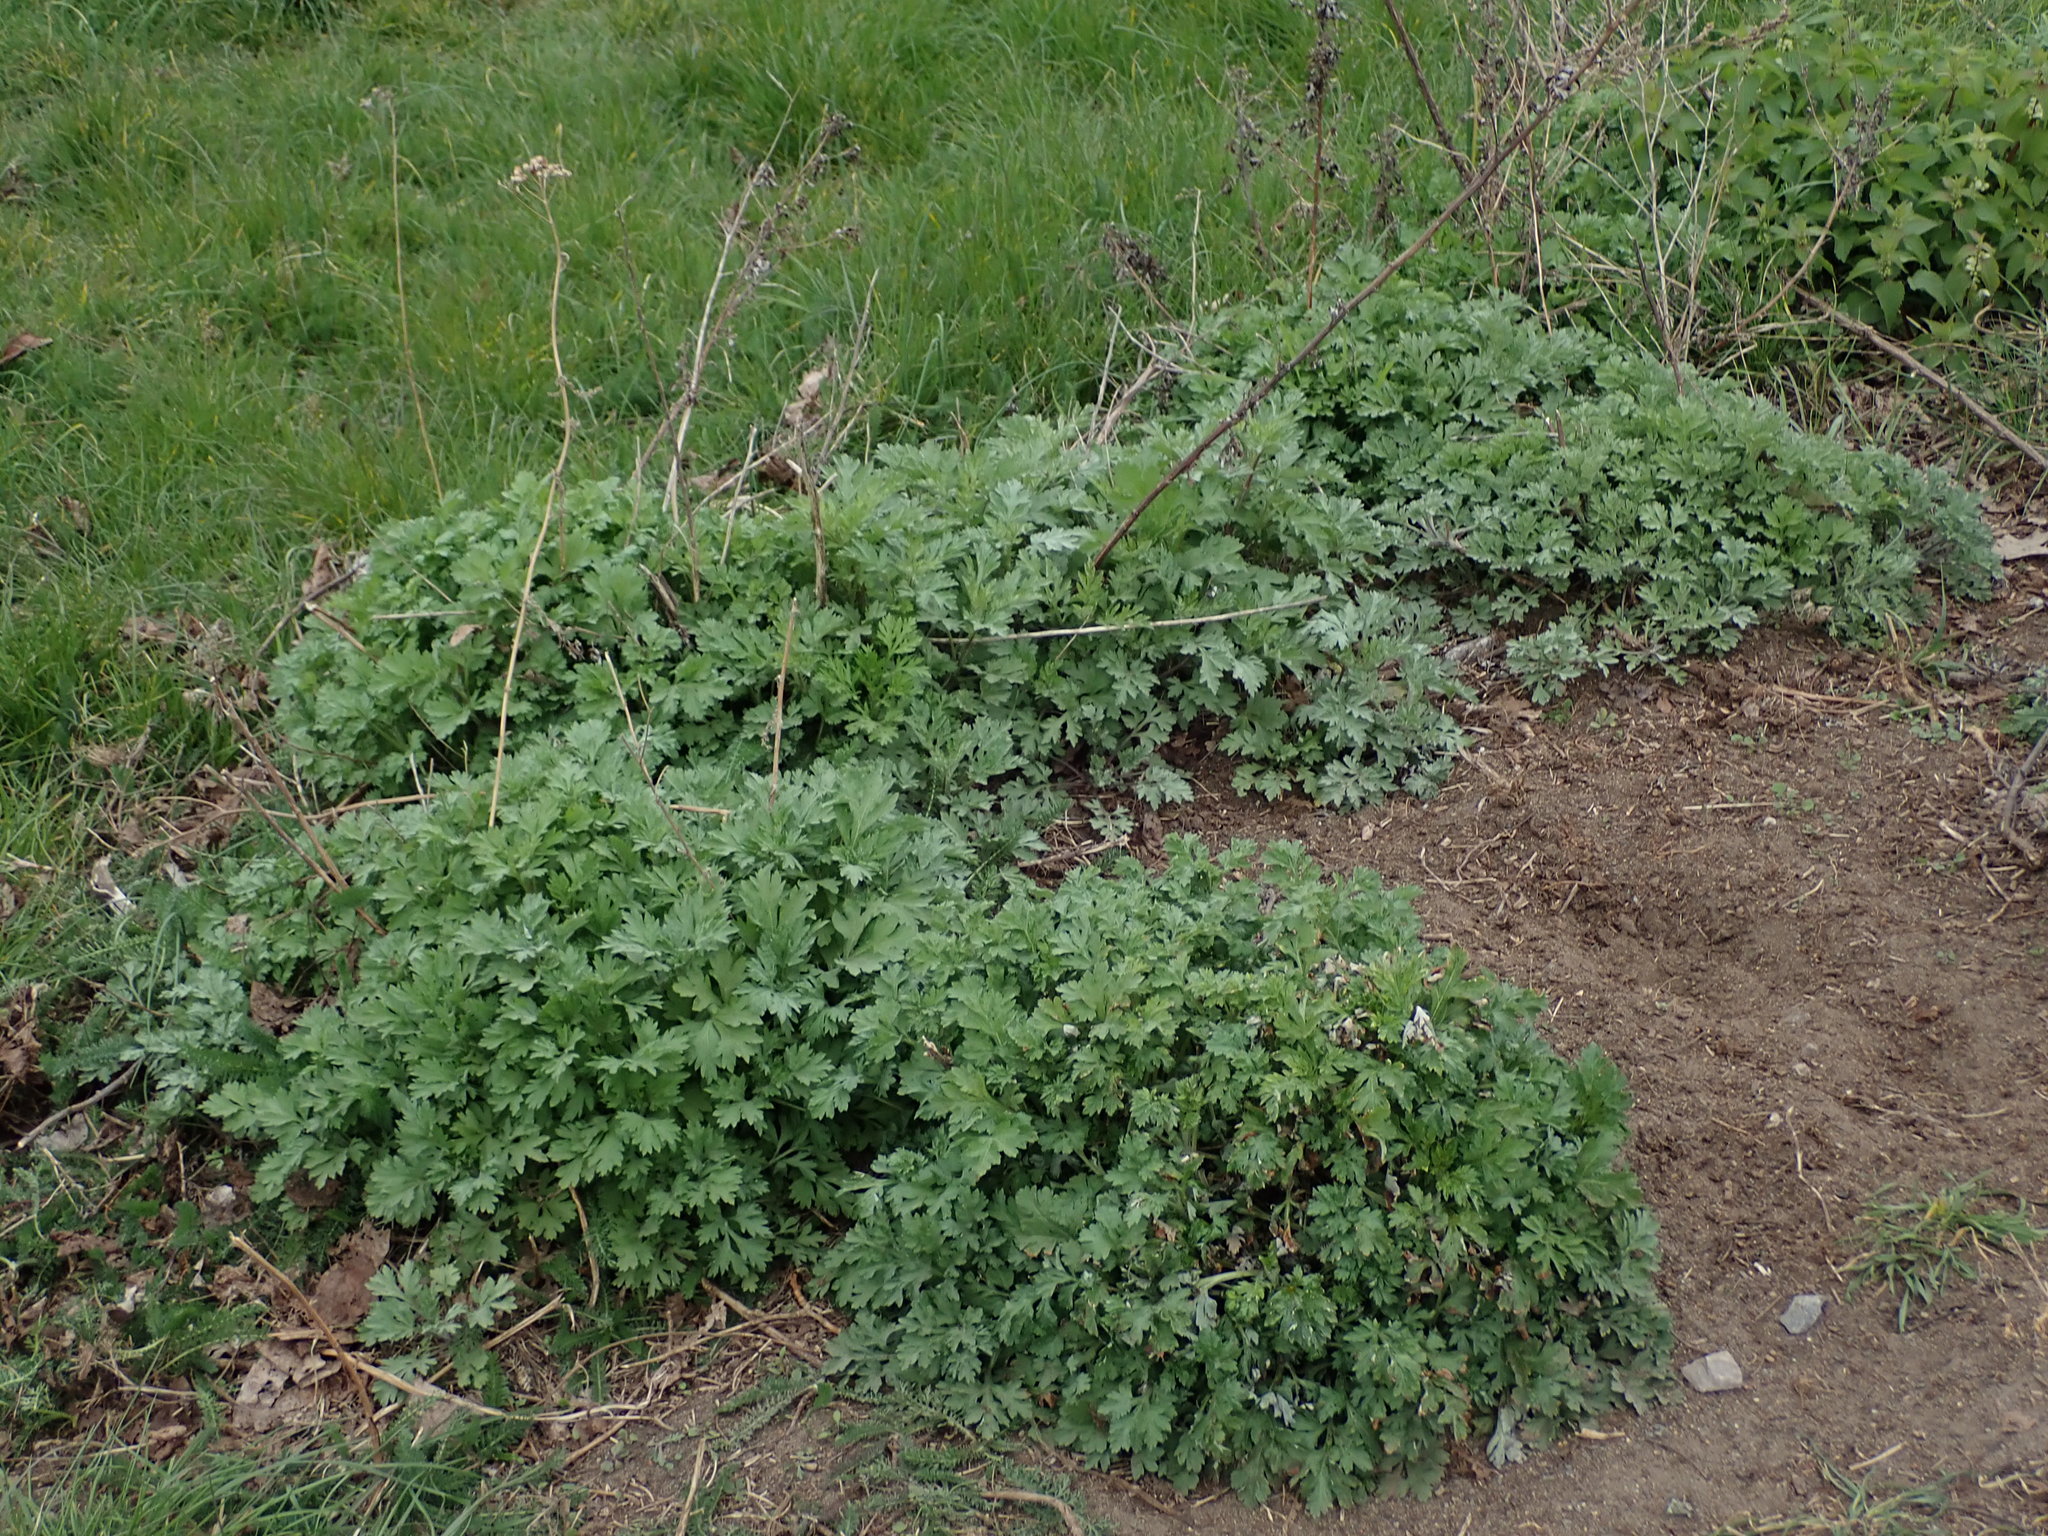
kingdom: Plantae
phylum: Tracheophyta
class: Magnoliopsida
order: Asterales
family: Asteraceae
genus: Artemisia
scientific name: Artemisia vulgaris
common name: Mugwort
